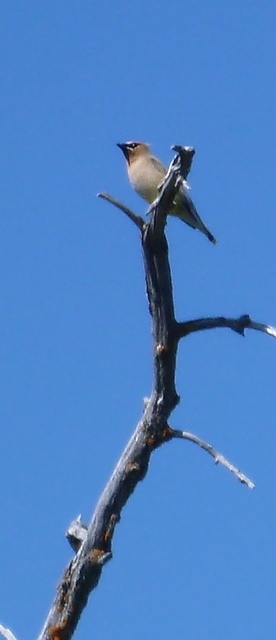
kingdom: Animalia
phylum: Chordata
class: Aves
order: Passeriformes
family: Bombycillidae
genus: Bombycilla
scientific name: Bombycilla cedrorum
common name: Cedar waxwing
